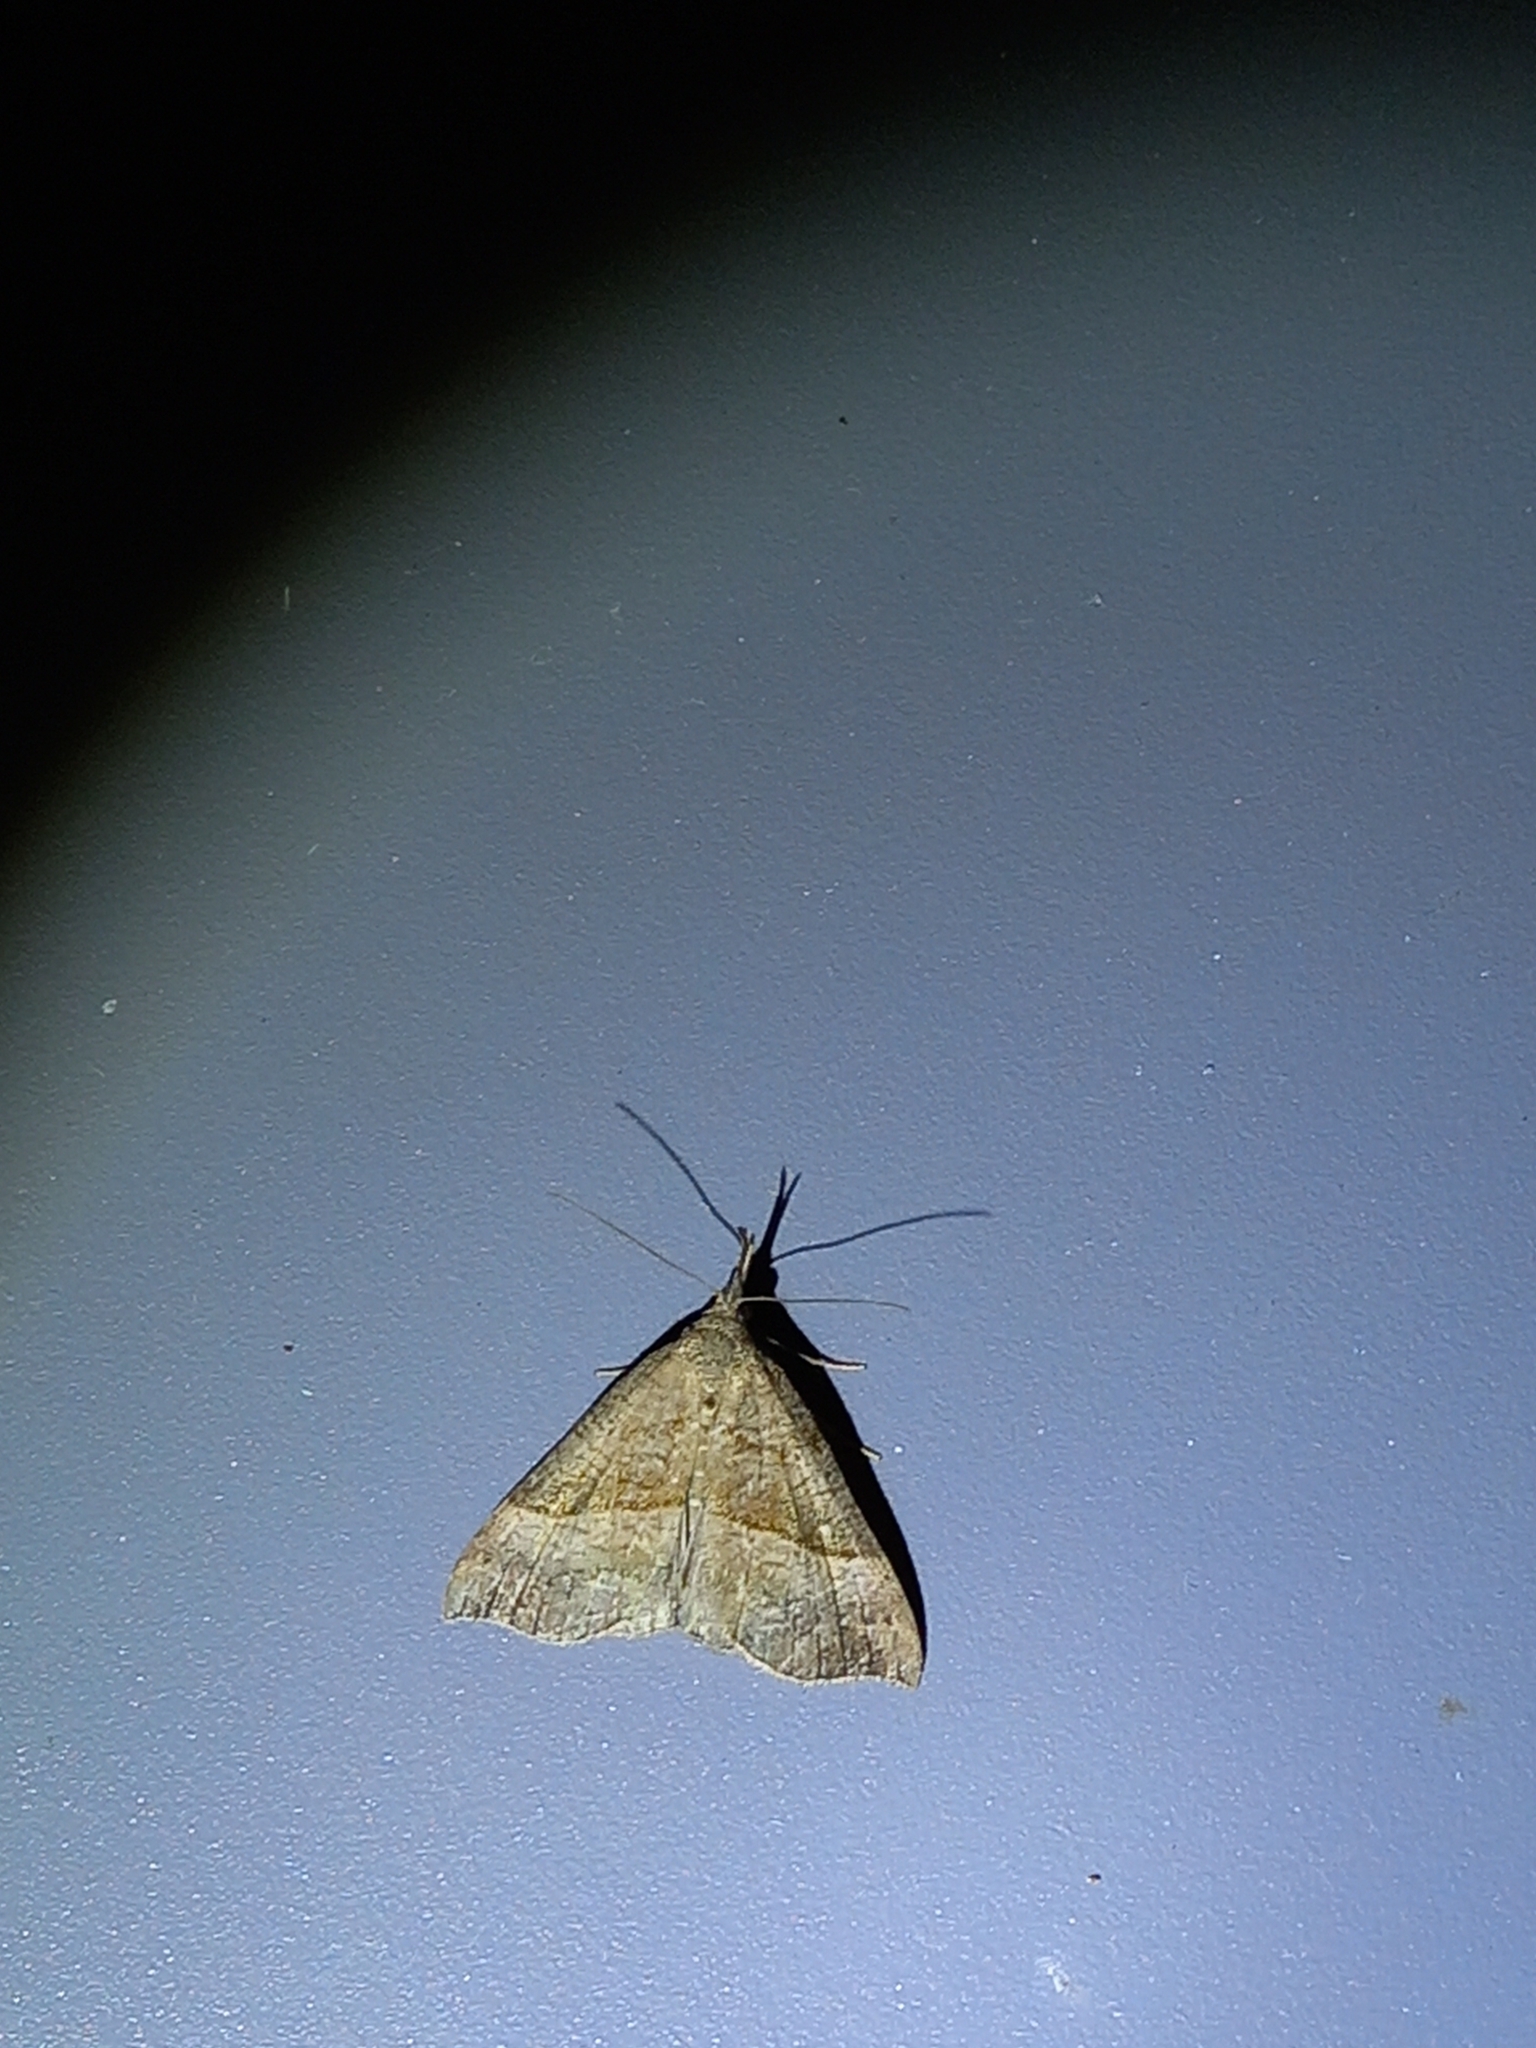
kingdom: Animalia
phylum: Arthropoda
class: Insecta
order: Lepidoptera
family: Erebidae
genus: Hypena
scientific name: Hypena proboscidalis
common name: Snout
